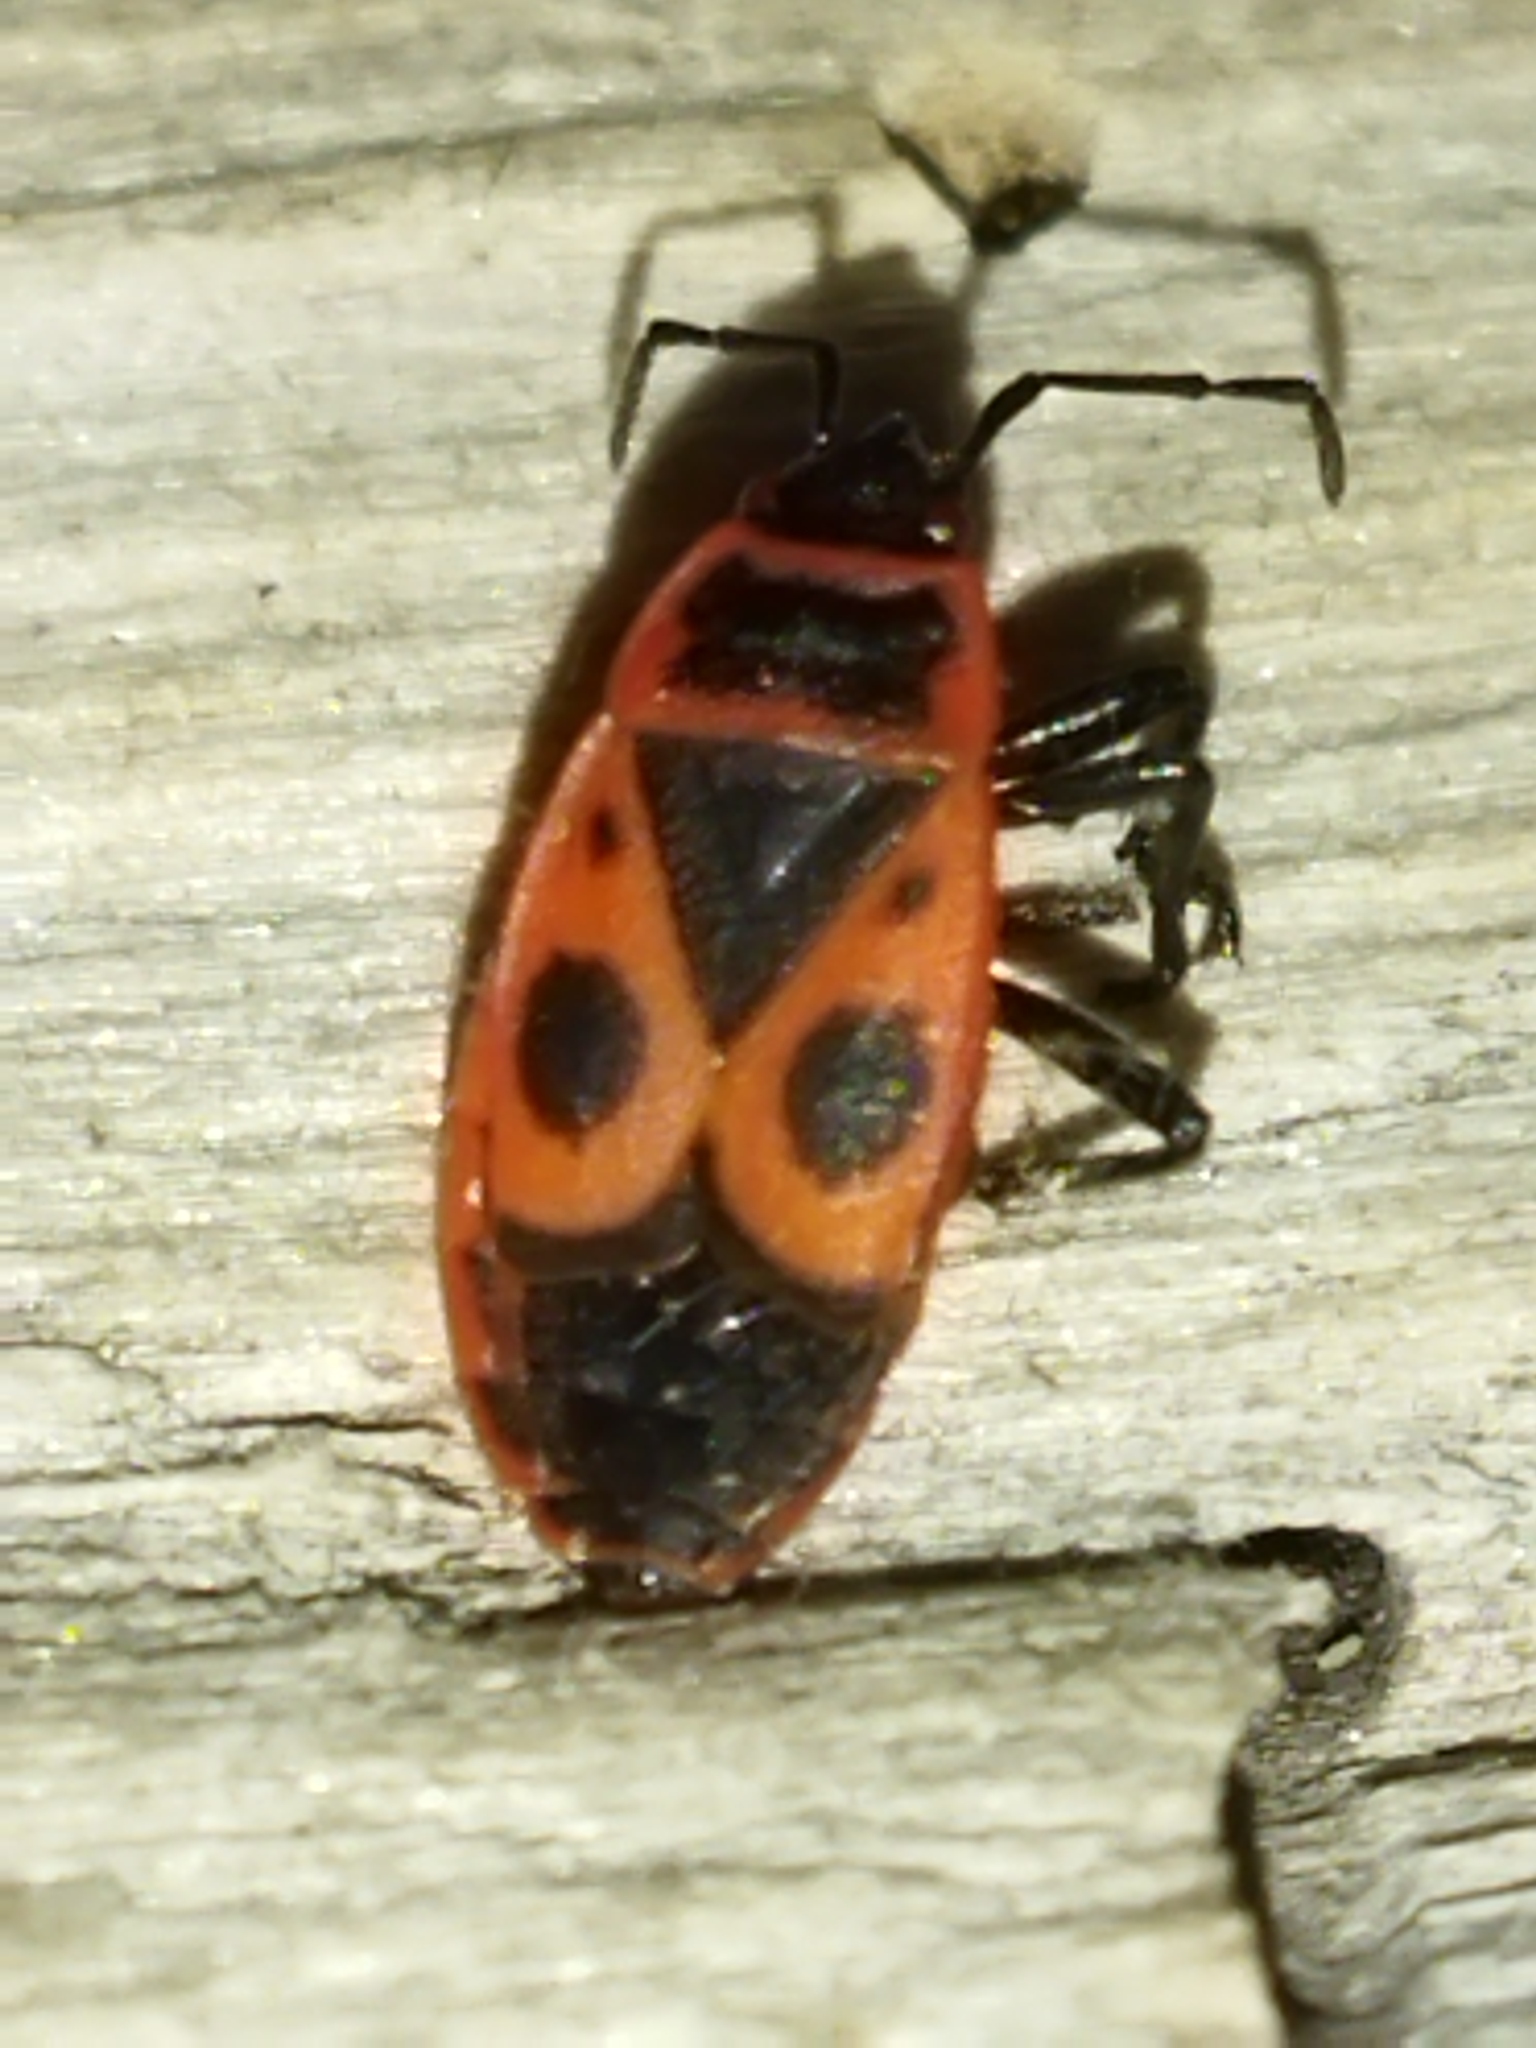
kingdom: Animalia
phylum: Arthropoda
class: Insecta
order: Hemiptera
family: Pyrrhocoridae
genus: Pyrrhocoris
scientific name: Pyrrhocoris apterus
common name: Firebug
